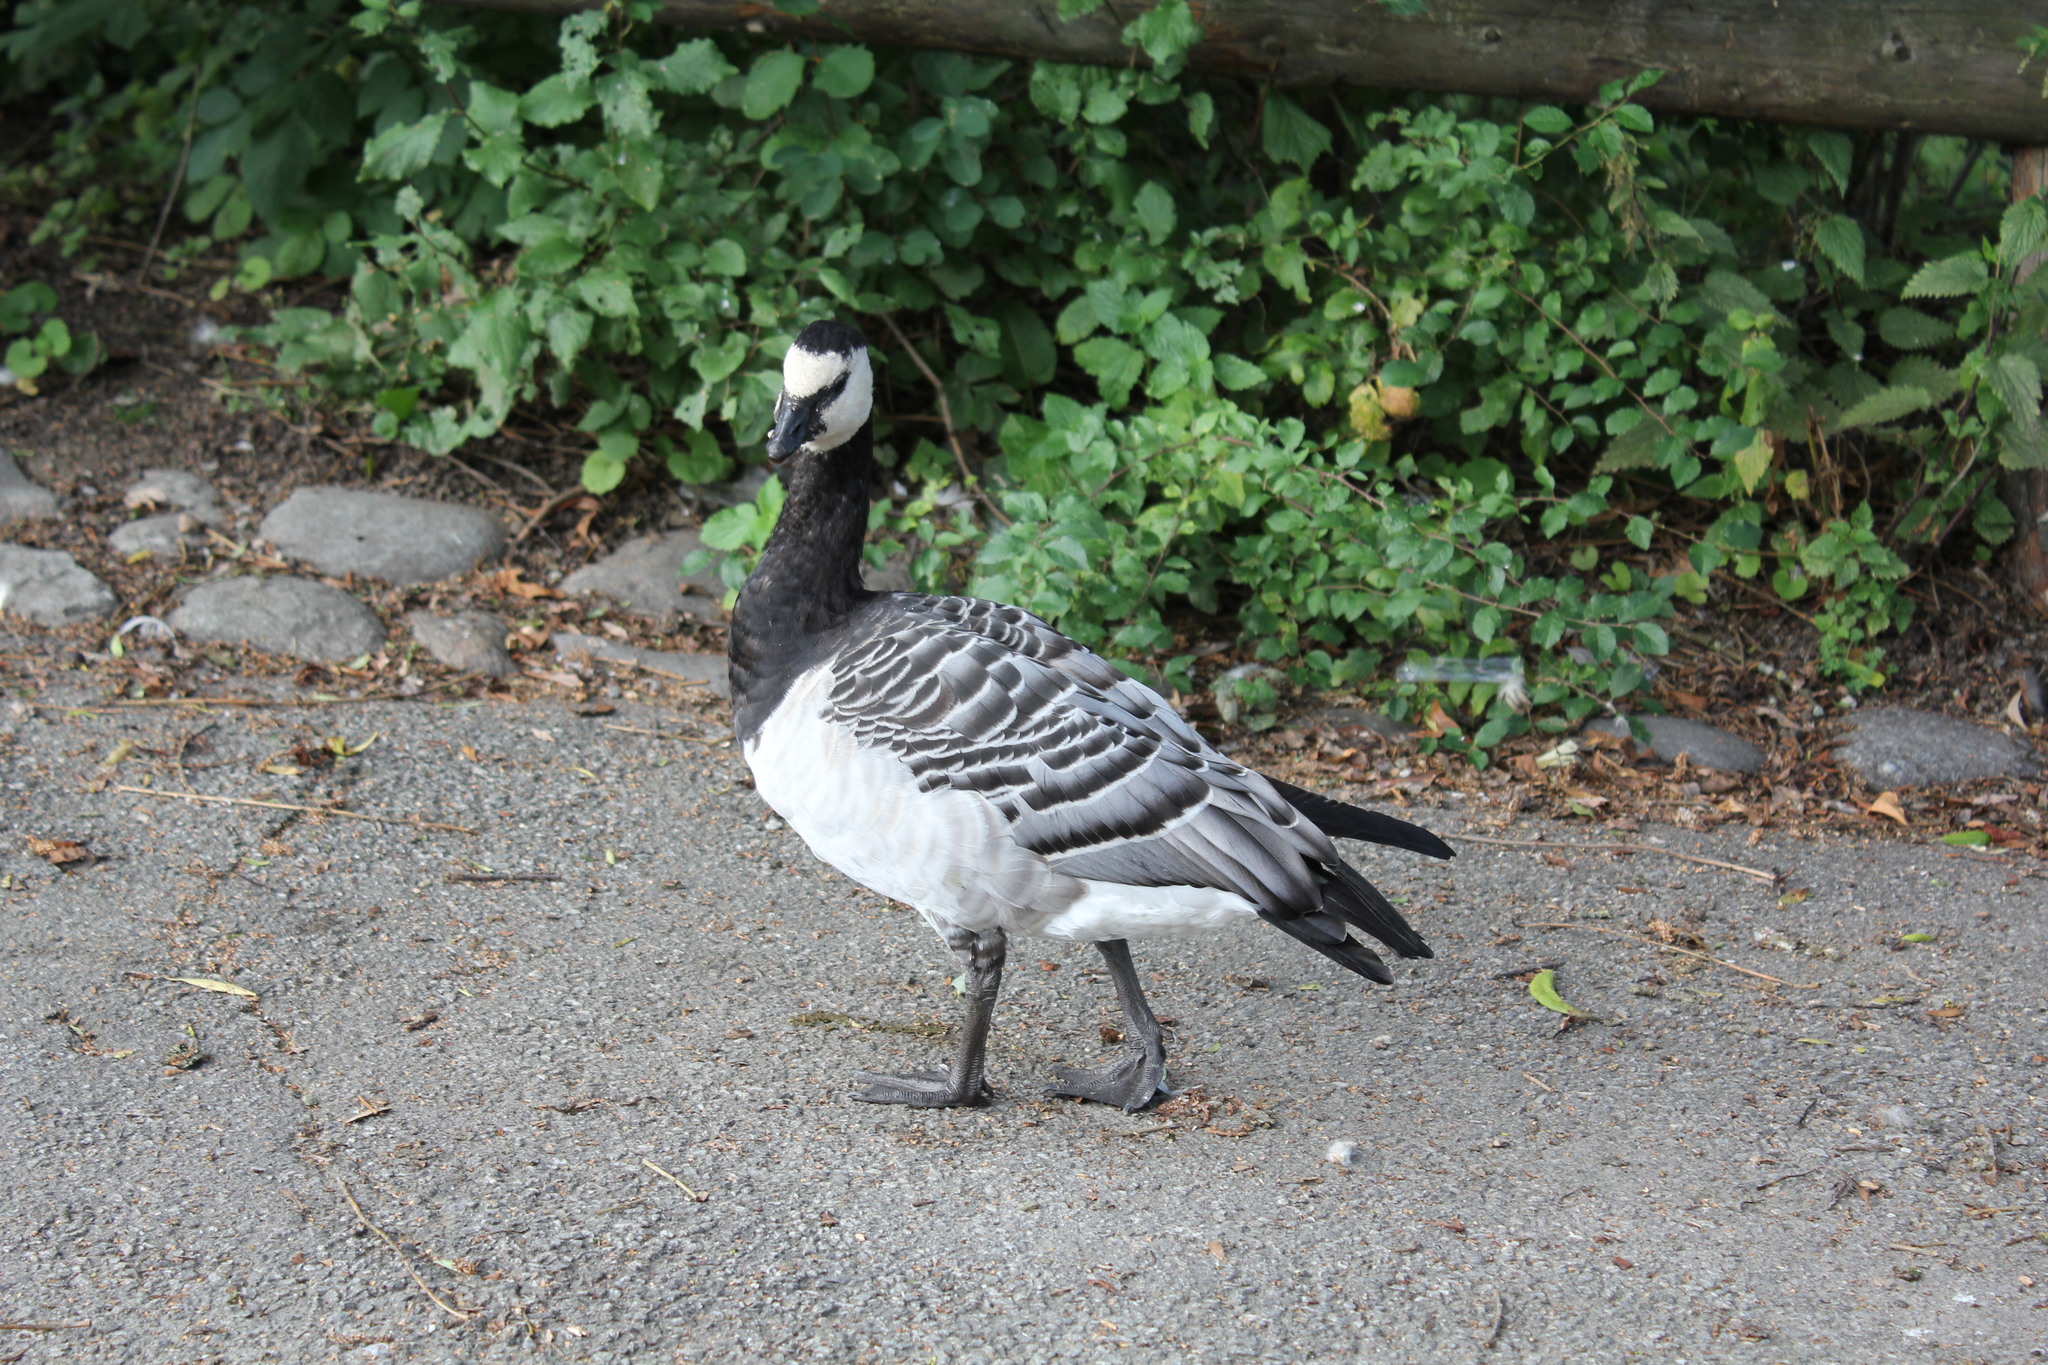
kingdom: Animalia
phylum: Chordata
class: Aves
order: Anseriformes
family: Anatidae
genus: Branta
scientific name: Branta leucopsis
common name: Barnacle goose
